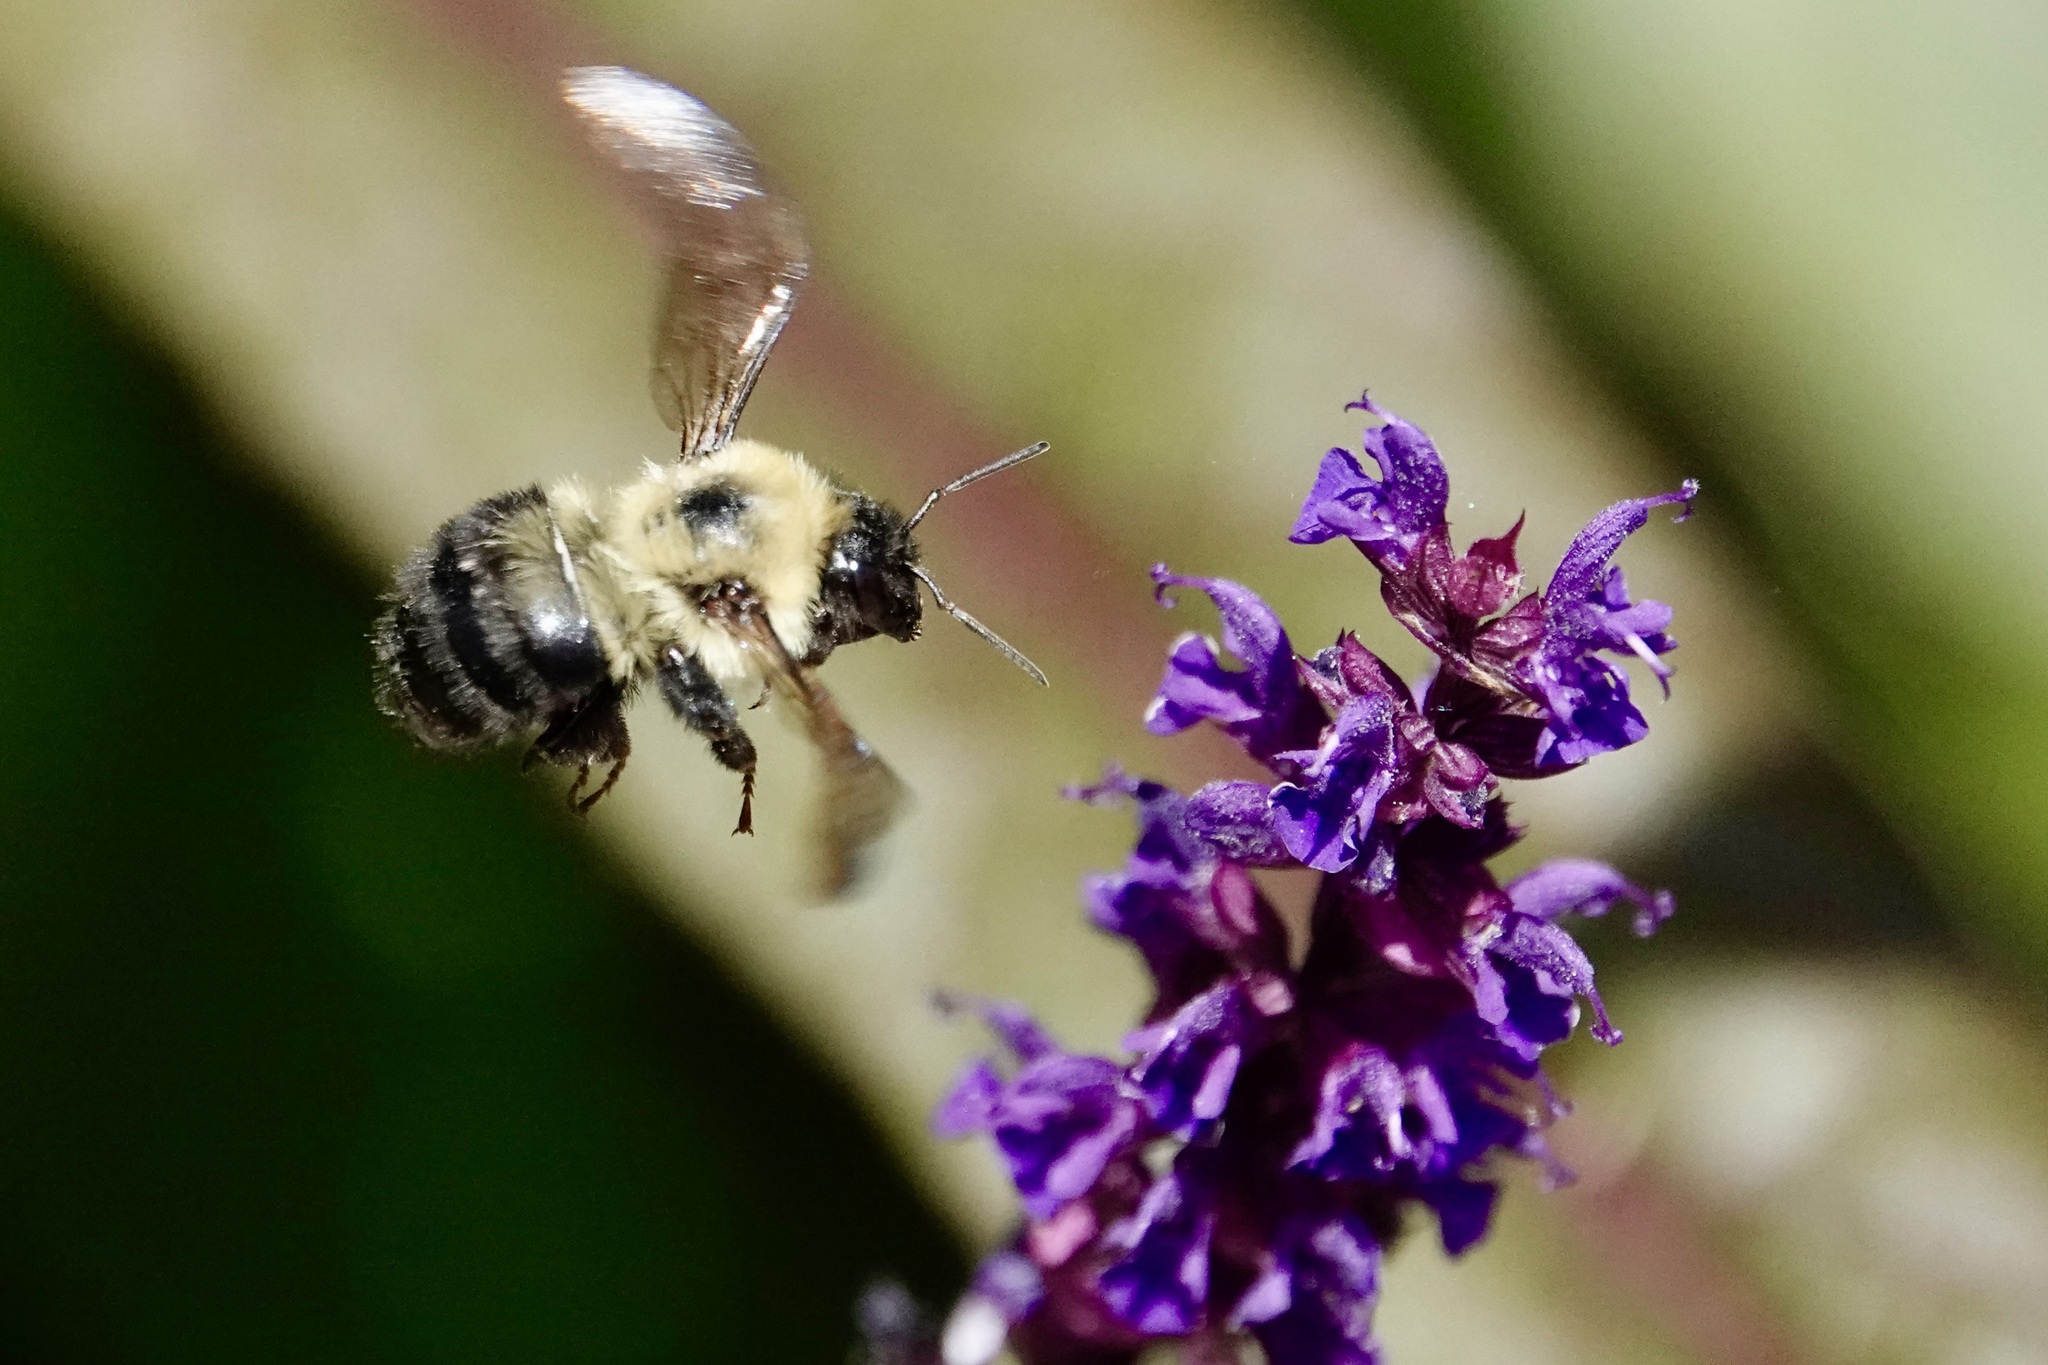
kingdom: Animalia
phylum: Arthropoda
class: Insecta
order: Hymenoptera
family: Apidae
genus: Bombus
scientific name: Bombus bimaculatus
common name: Two-spotted bumble bee
